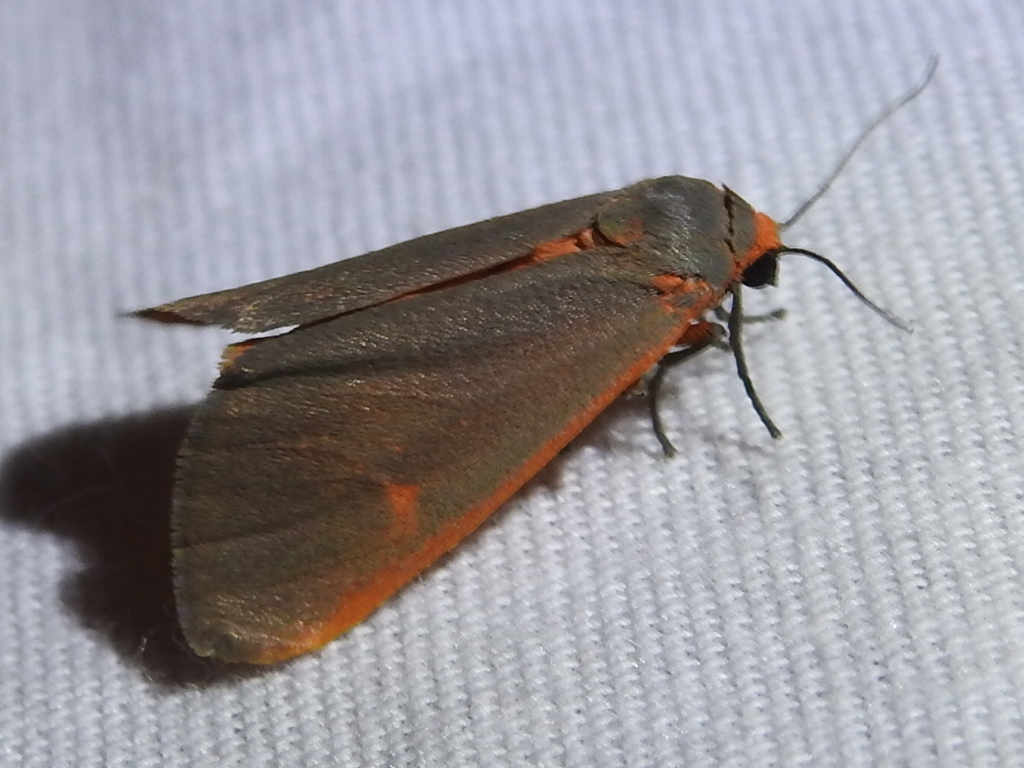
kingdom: Animalia
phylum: Arthropoda
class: Insecta
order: Lepidoptera
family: Erebidae
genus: Virbia
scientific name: Virbia laeta
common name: Joyful holomelina moth
